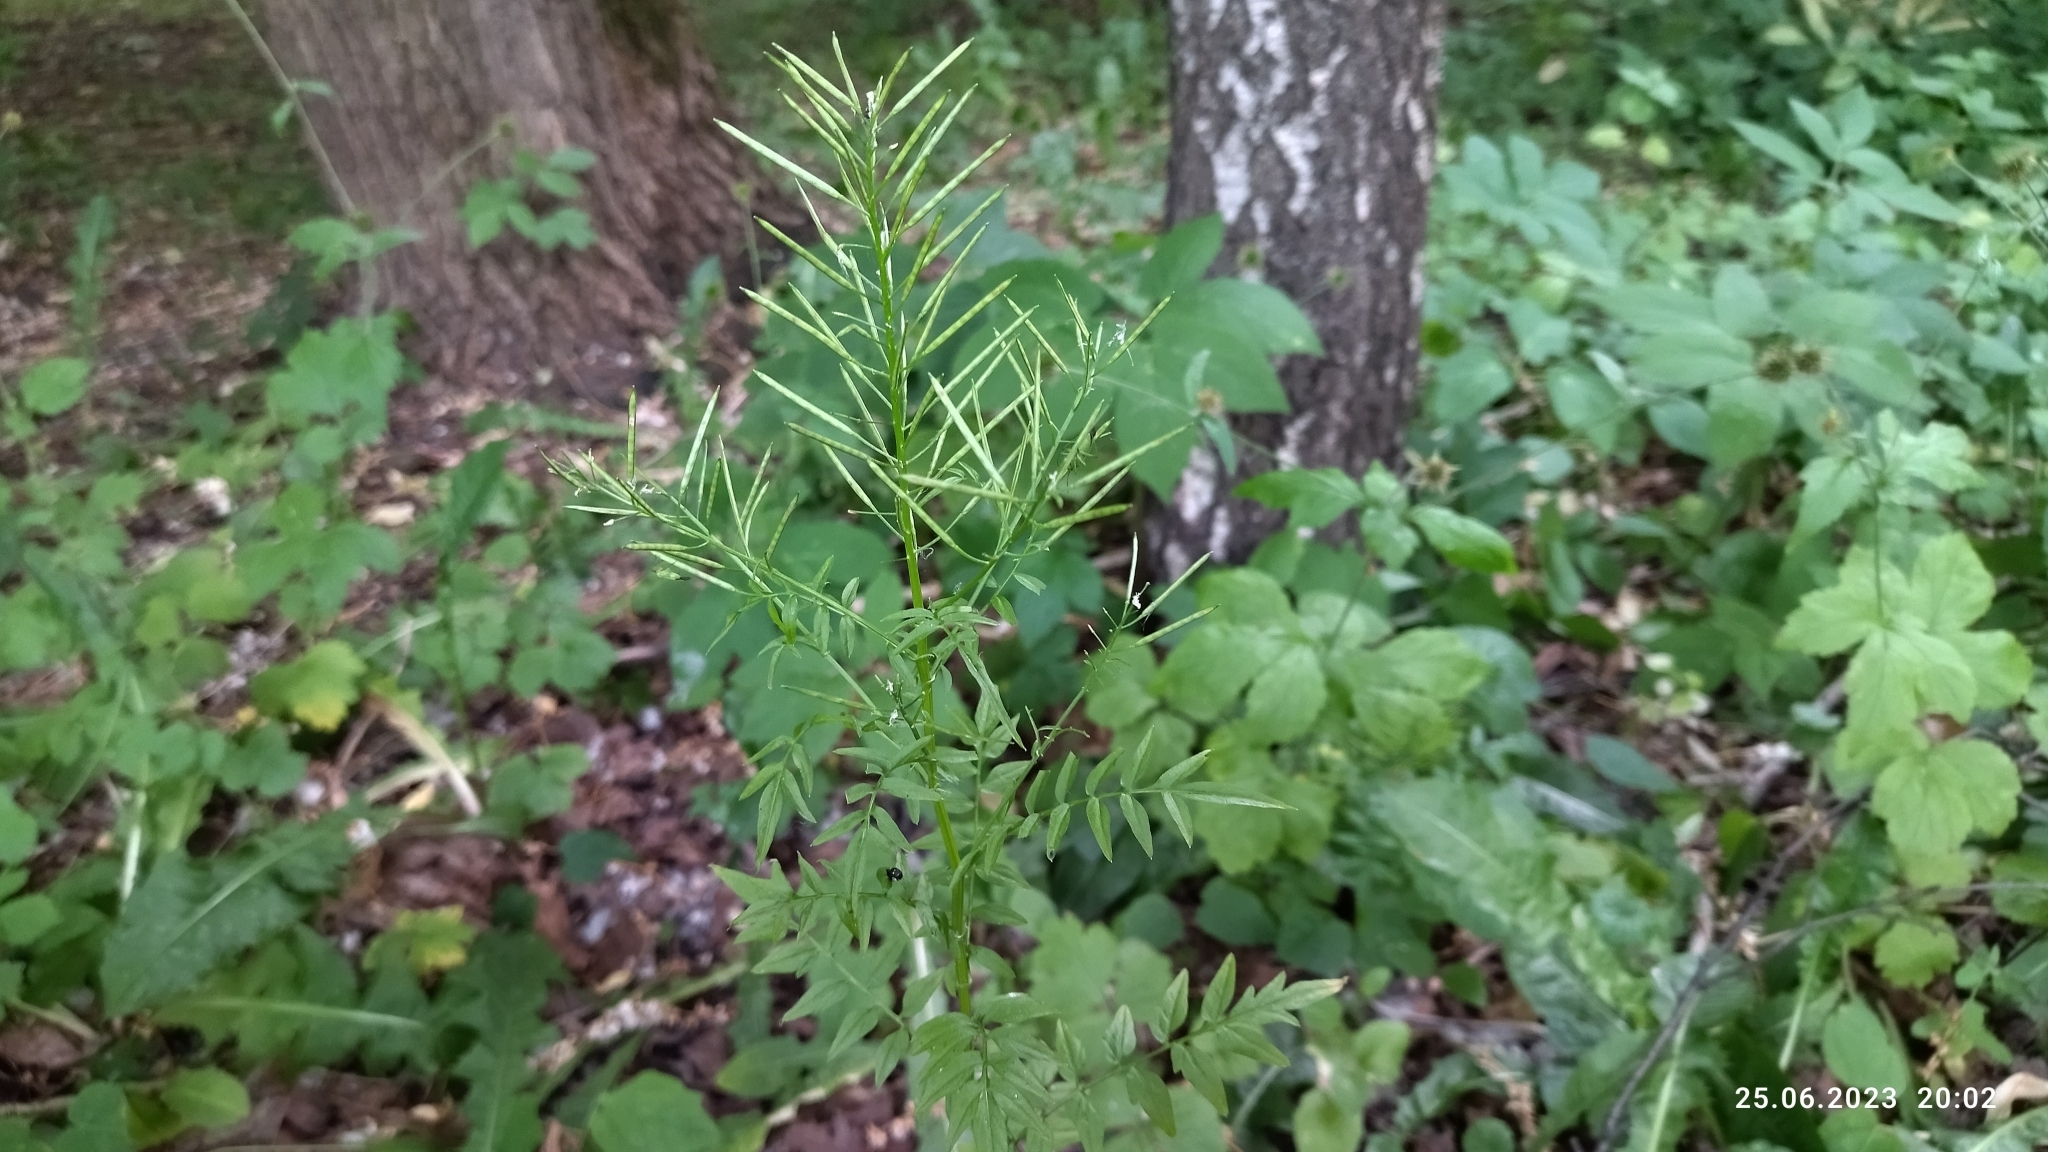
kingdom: Plantae
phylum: Tracheophyta
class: Magnoliopsida
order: Brassicales
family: Brassicaceae
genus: Cardamine
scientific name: Cardamine impatiens
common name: Narrow-leaved bitter-cress
